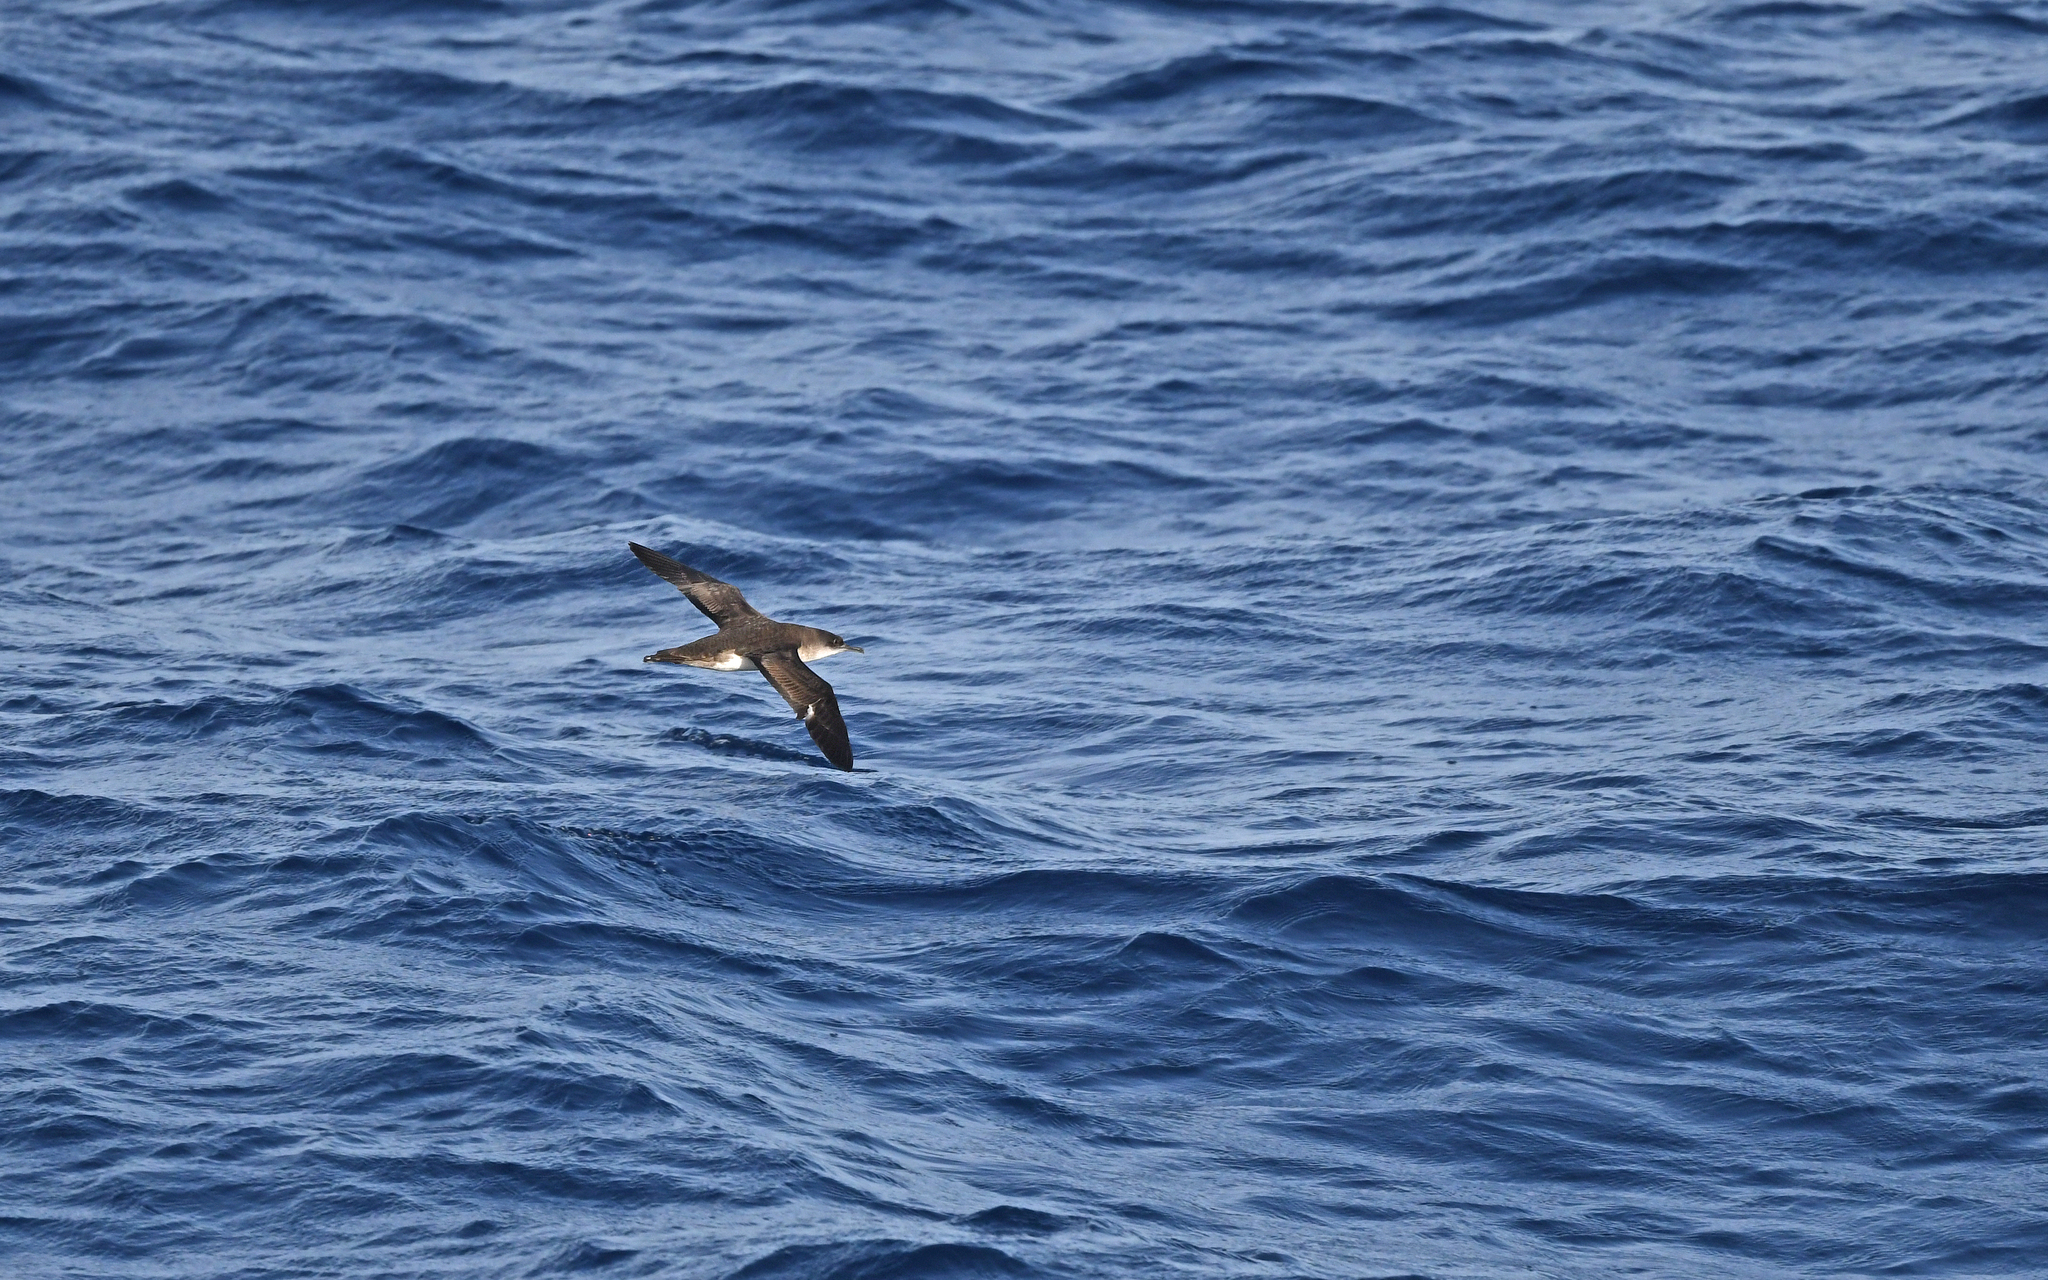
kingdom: Animalia
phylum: Chordata
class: Aves
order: Procellariiformes
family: Procellariidae
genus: Puffinus
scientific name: Puffinus yelkouan
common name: Yelkouan shearwater
